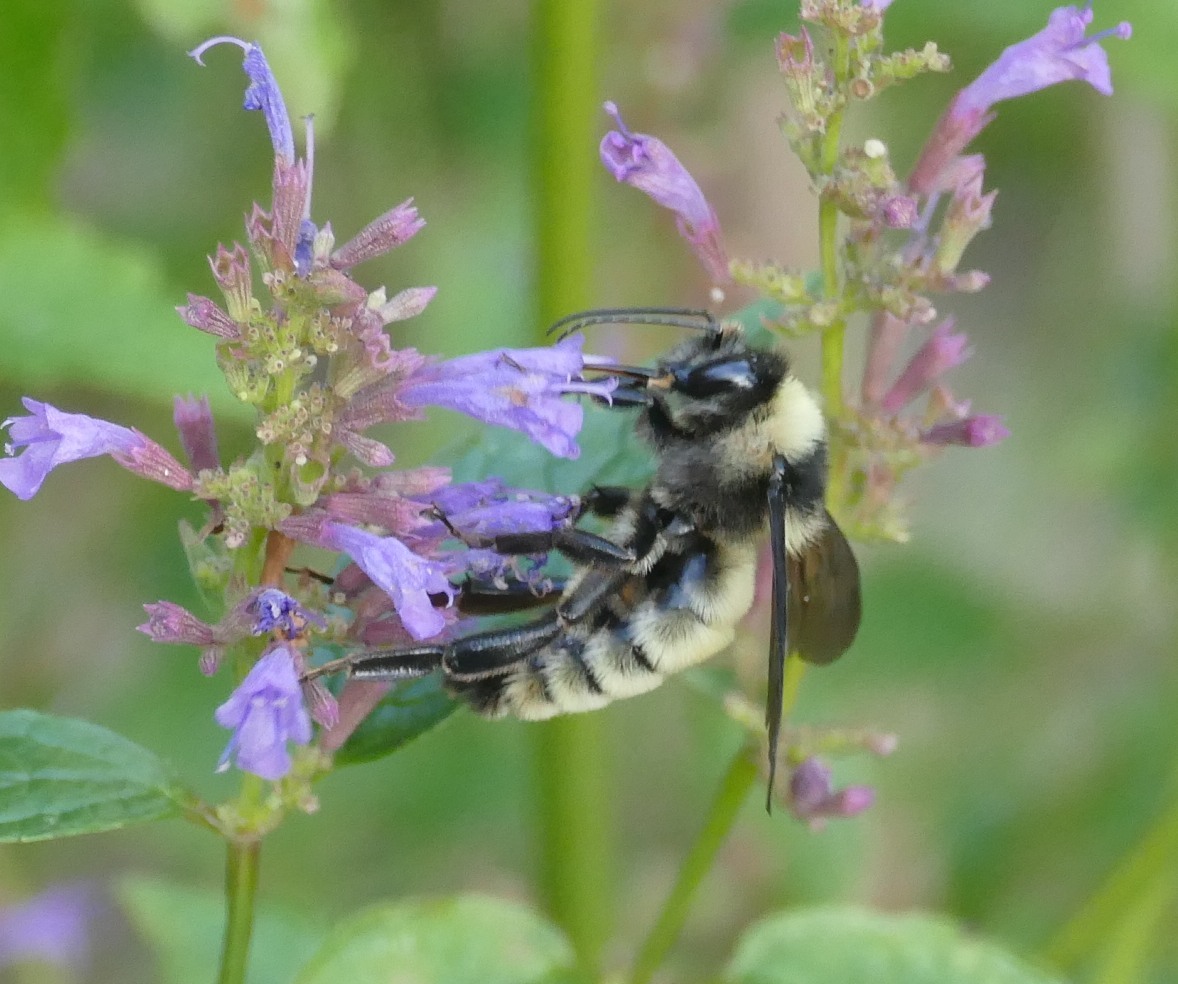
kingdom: Animalia
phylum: Arthropoda
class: Insecta
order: Hymenoptera
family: Apidae
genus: Bombus
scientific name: Bombus pensylvanicus
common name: Bumble bee
